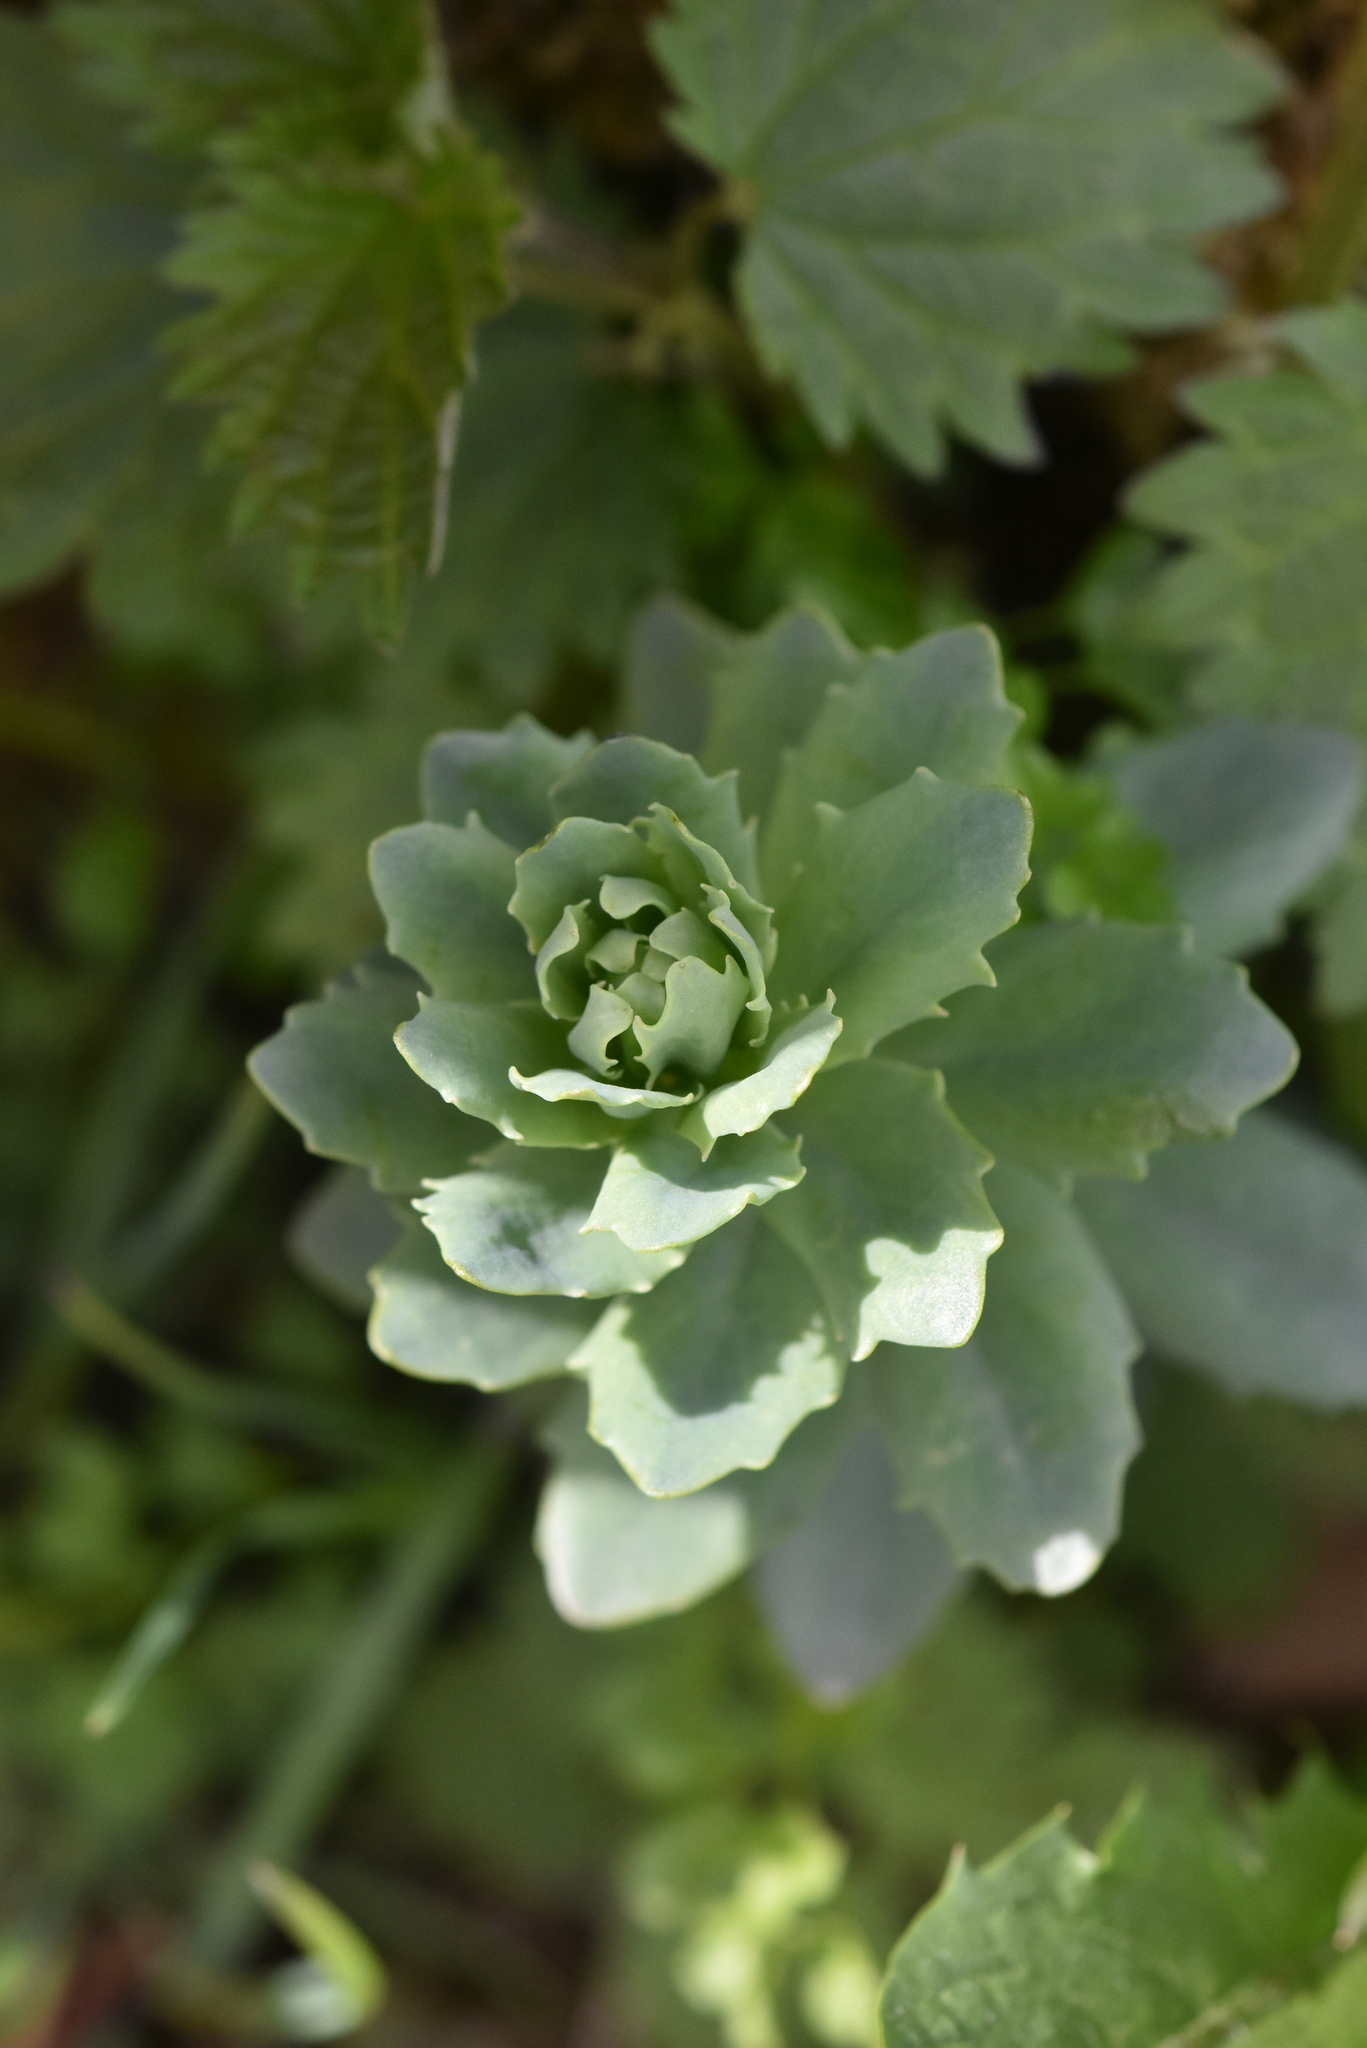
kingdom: Plantae
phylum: Tracheophyta
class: Magnoliopsida
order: Saxifragales
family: Crassulaceae
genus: Hylotelephium
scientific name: Hylotelephium telephium
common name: Live-forever
